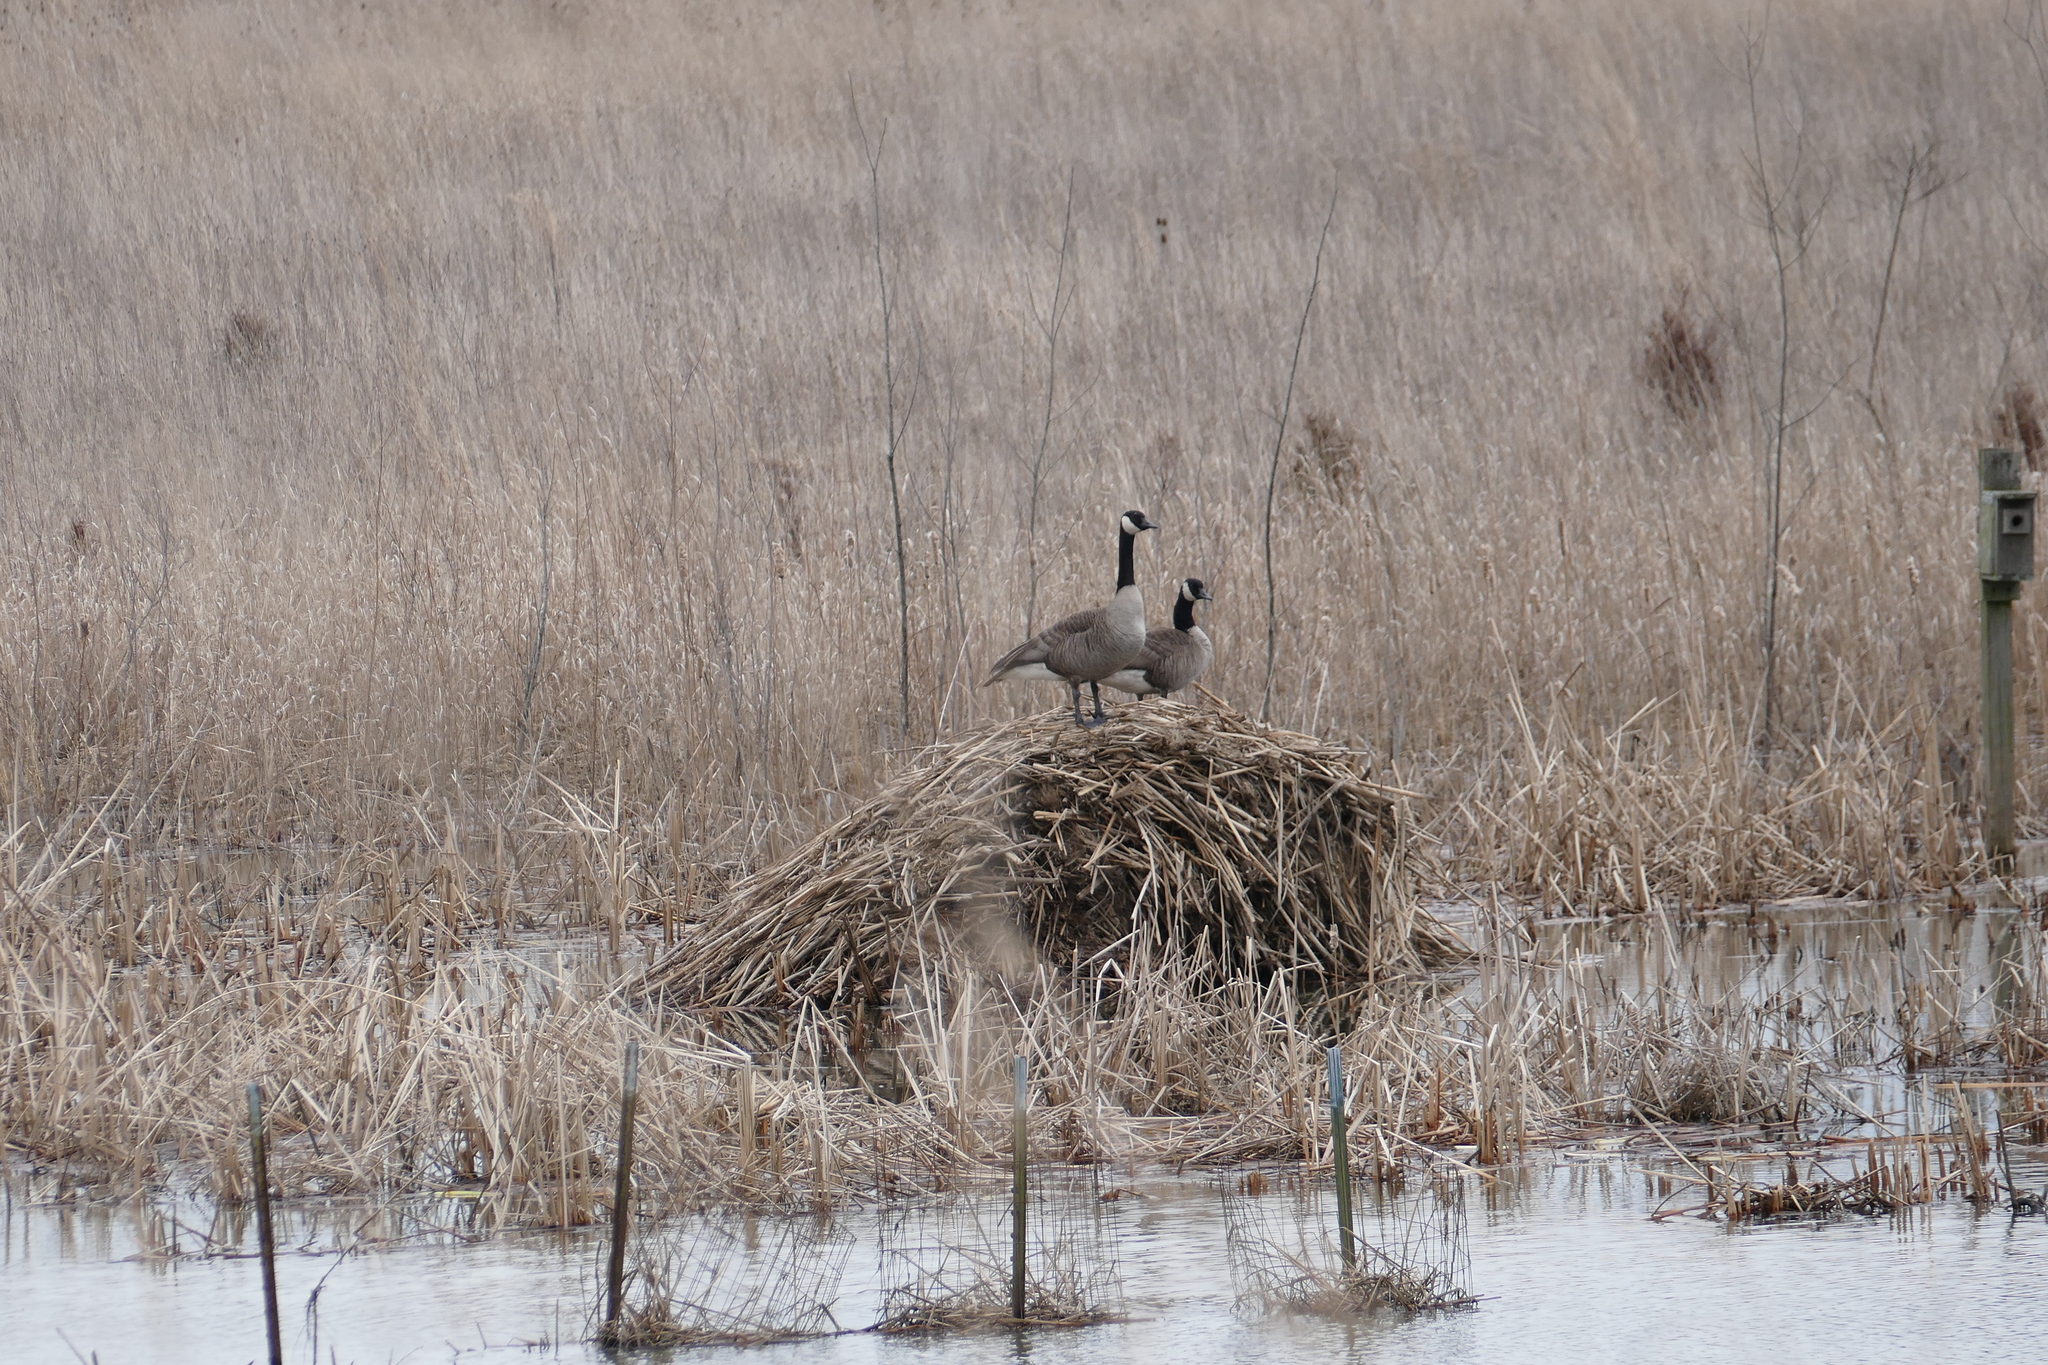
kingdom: Animalia
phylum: Chordata
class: Aves
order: Anseriformes
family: Anatidae
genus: Branta
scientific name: Branta canadensis
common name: Canada goose
